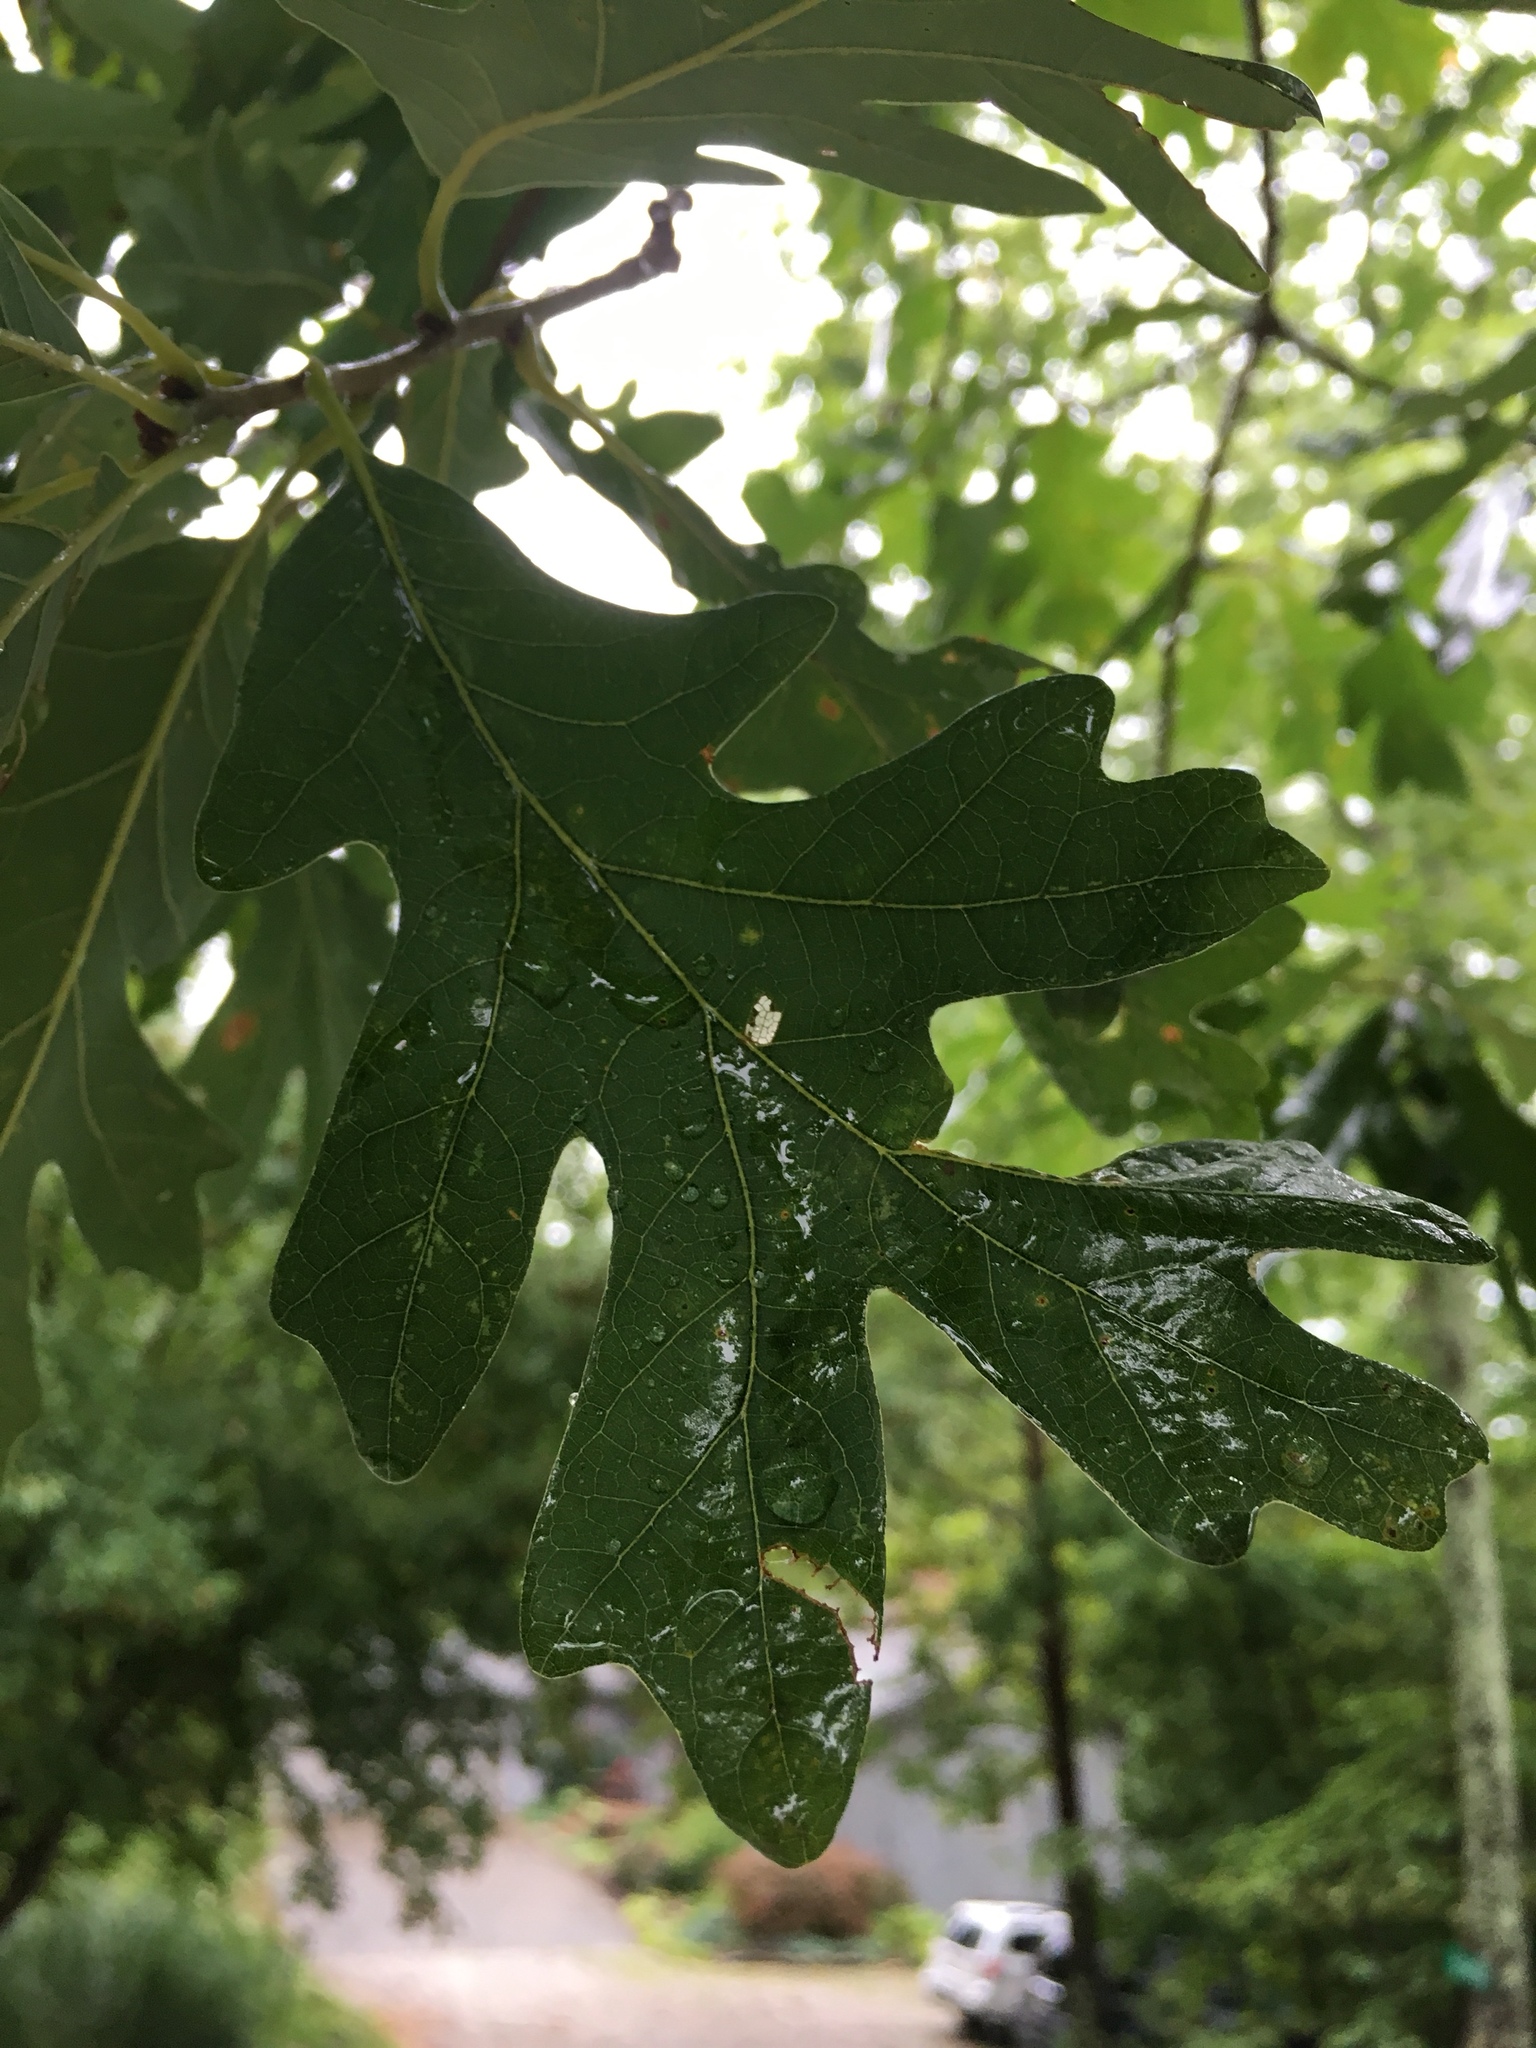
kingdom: Plantae
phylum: Tracheophyta
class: Magnoliopsida
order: Fagales
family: Fagaceae
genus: Quercus
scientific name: Quercus alba
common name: White oak
